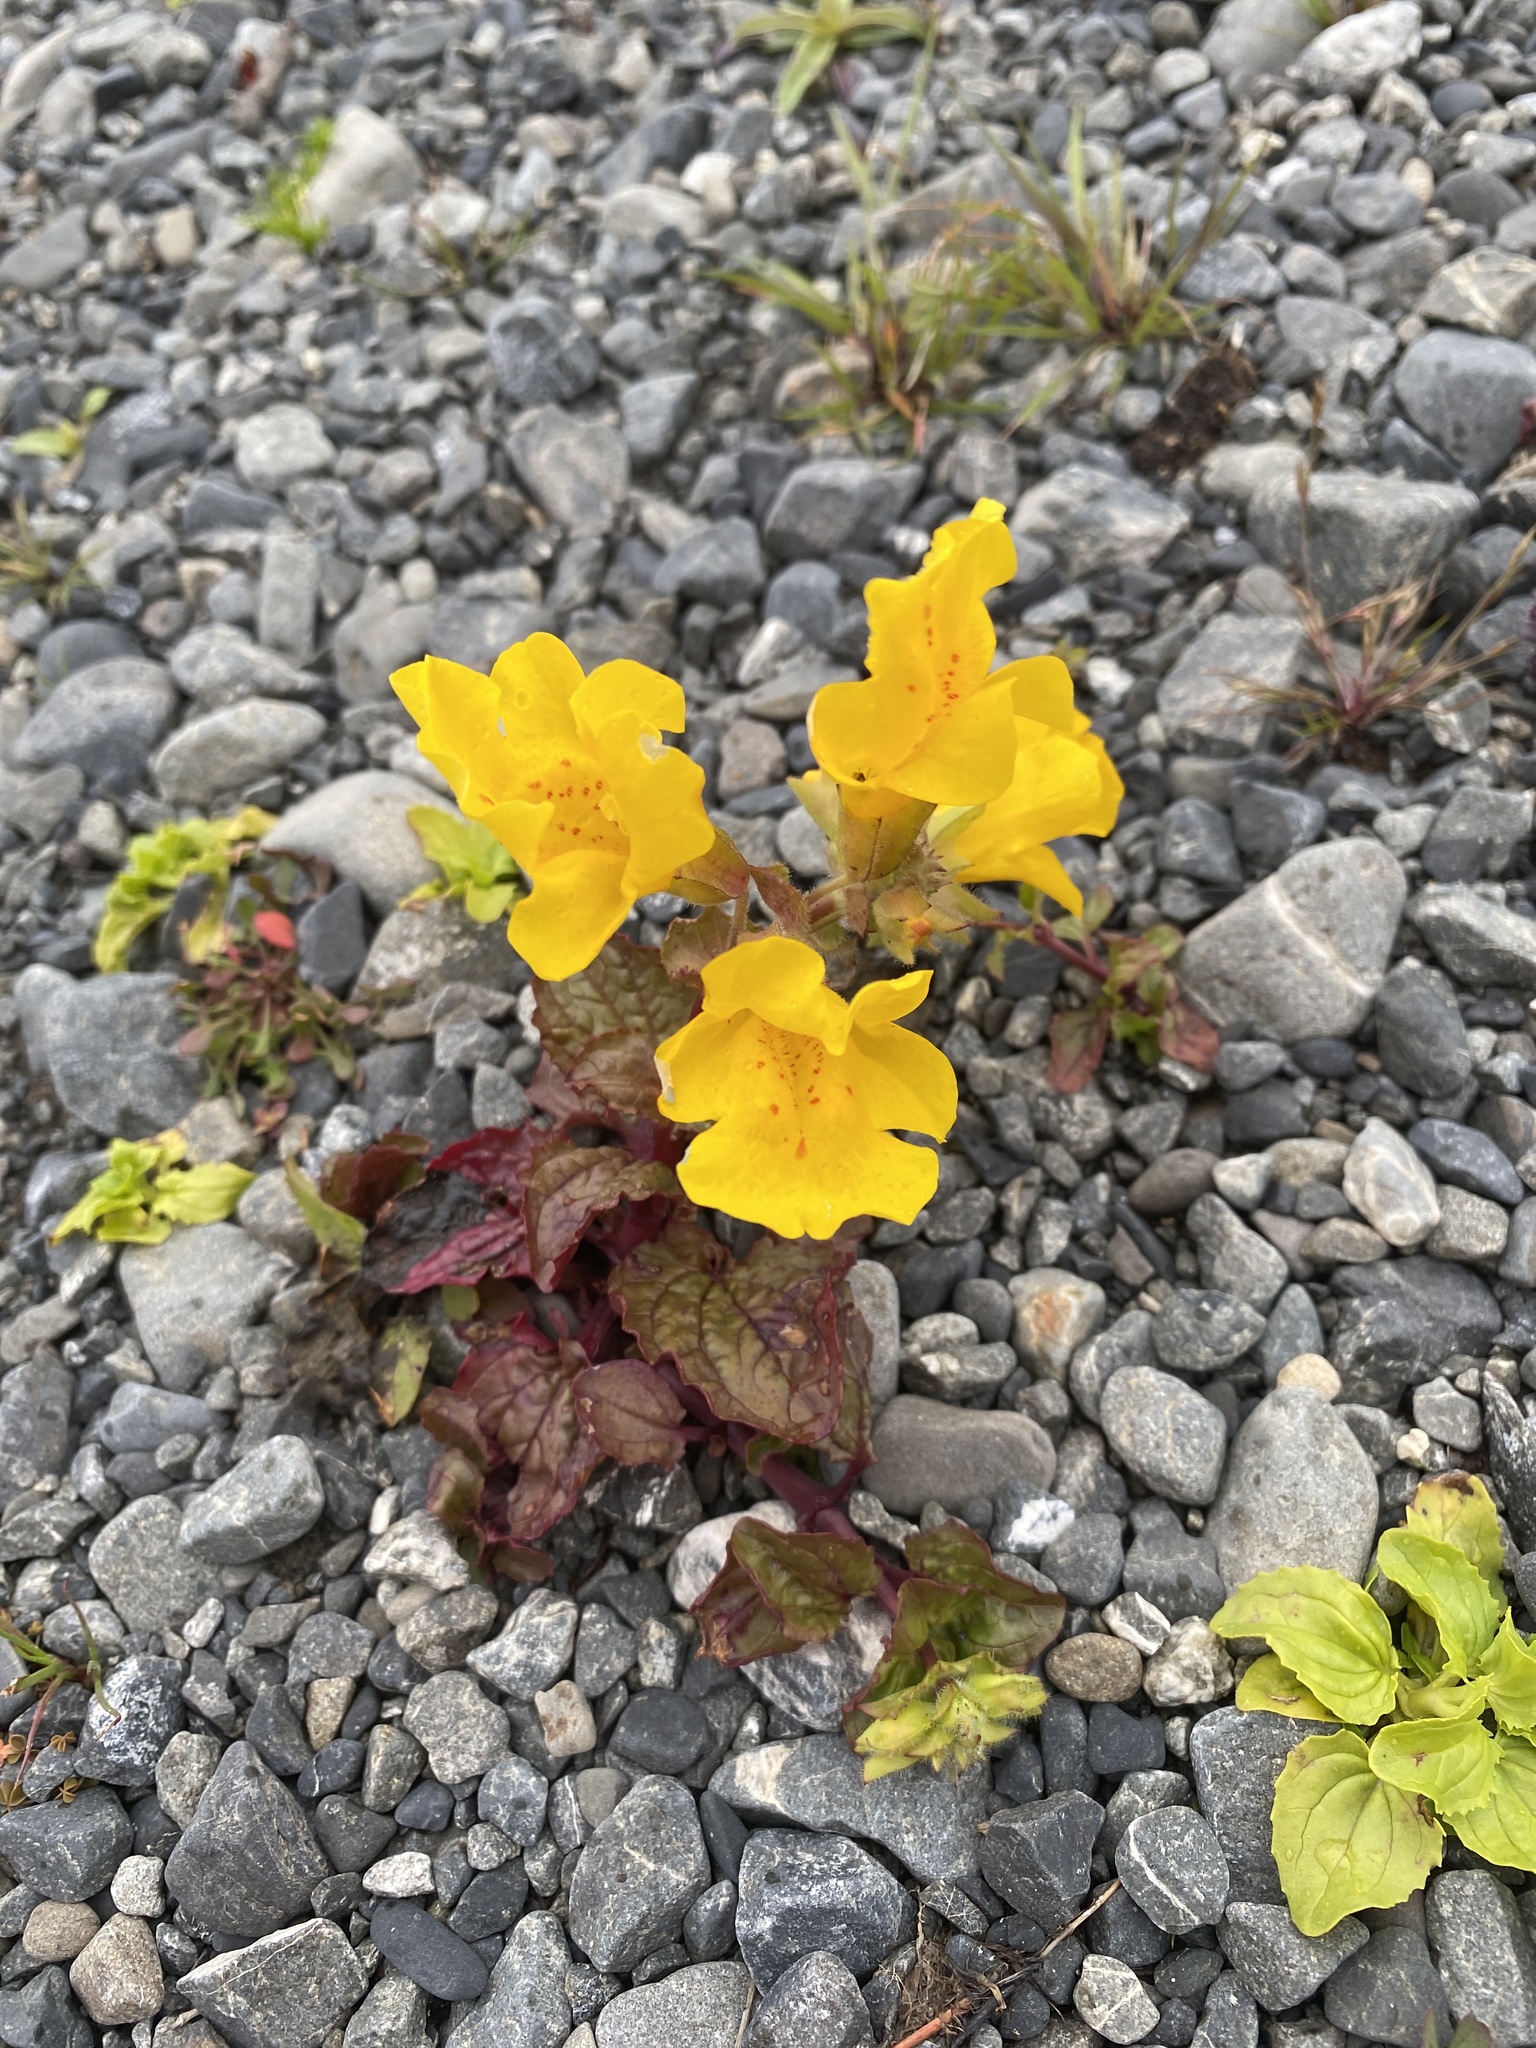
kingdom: Plantae
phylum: Tracheophyta
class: Magnoliopsida
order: Lamiales
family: Phrymaceae
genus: Erythranthe
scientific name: Erythranthe guttata
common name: Monkeyflower
